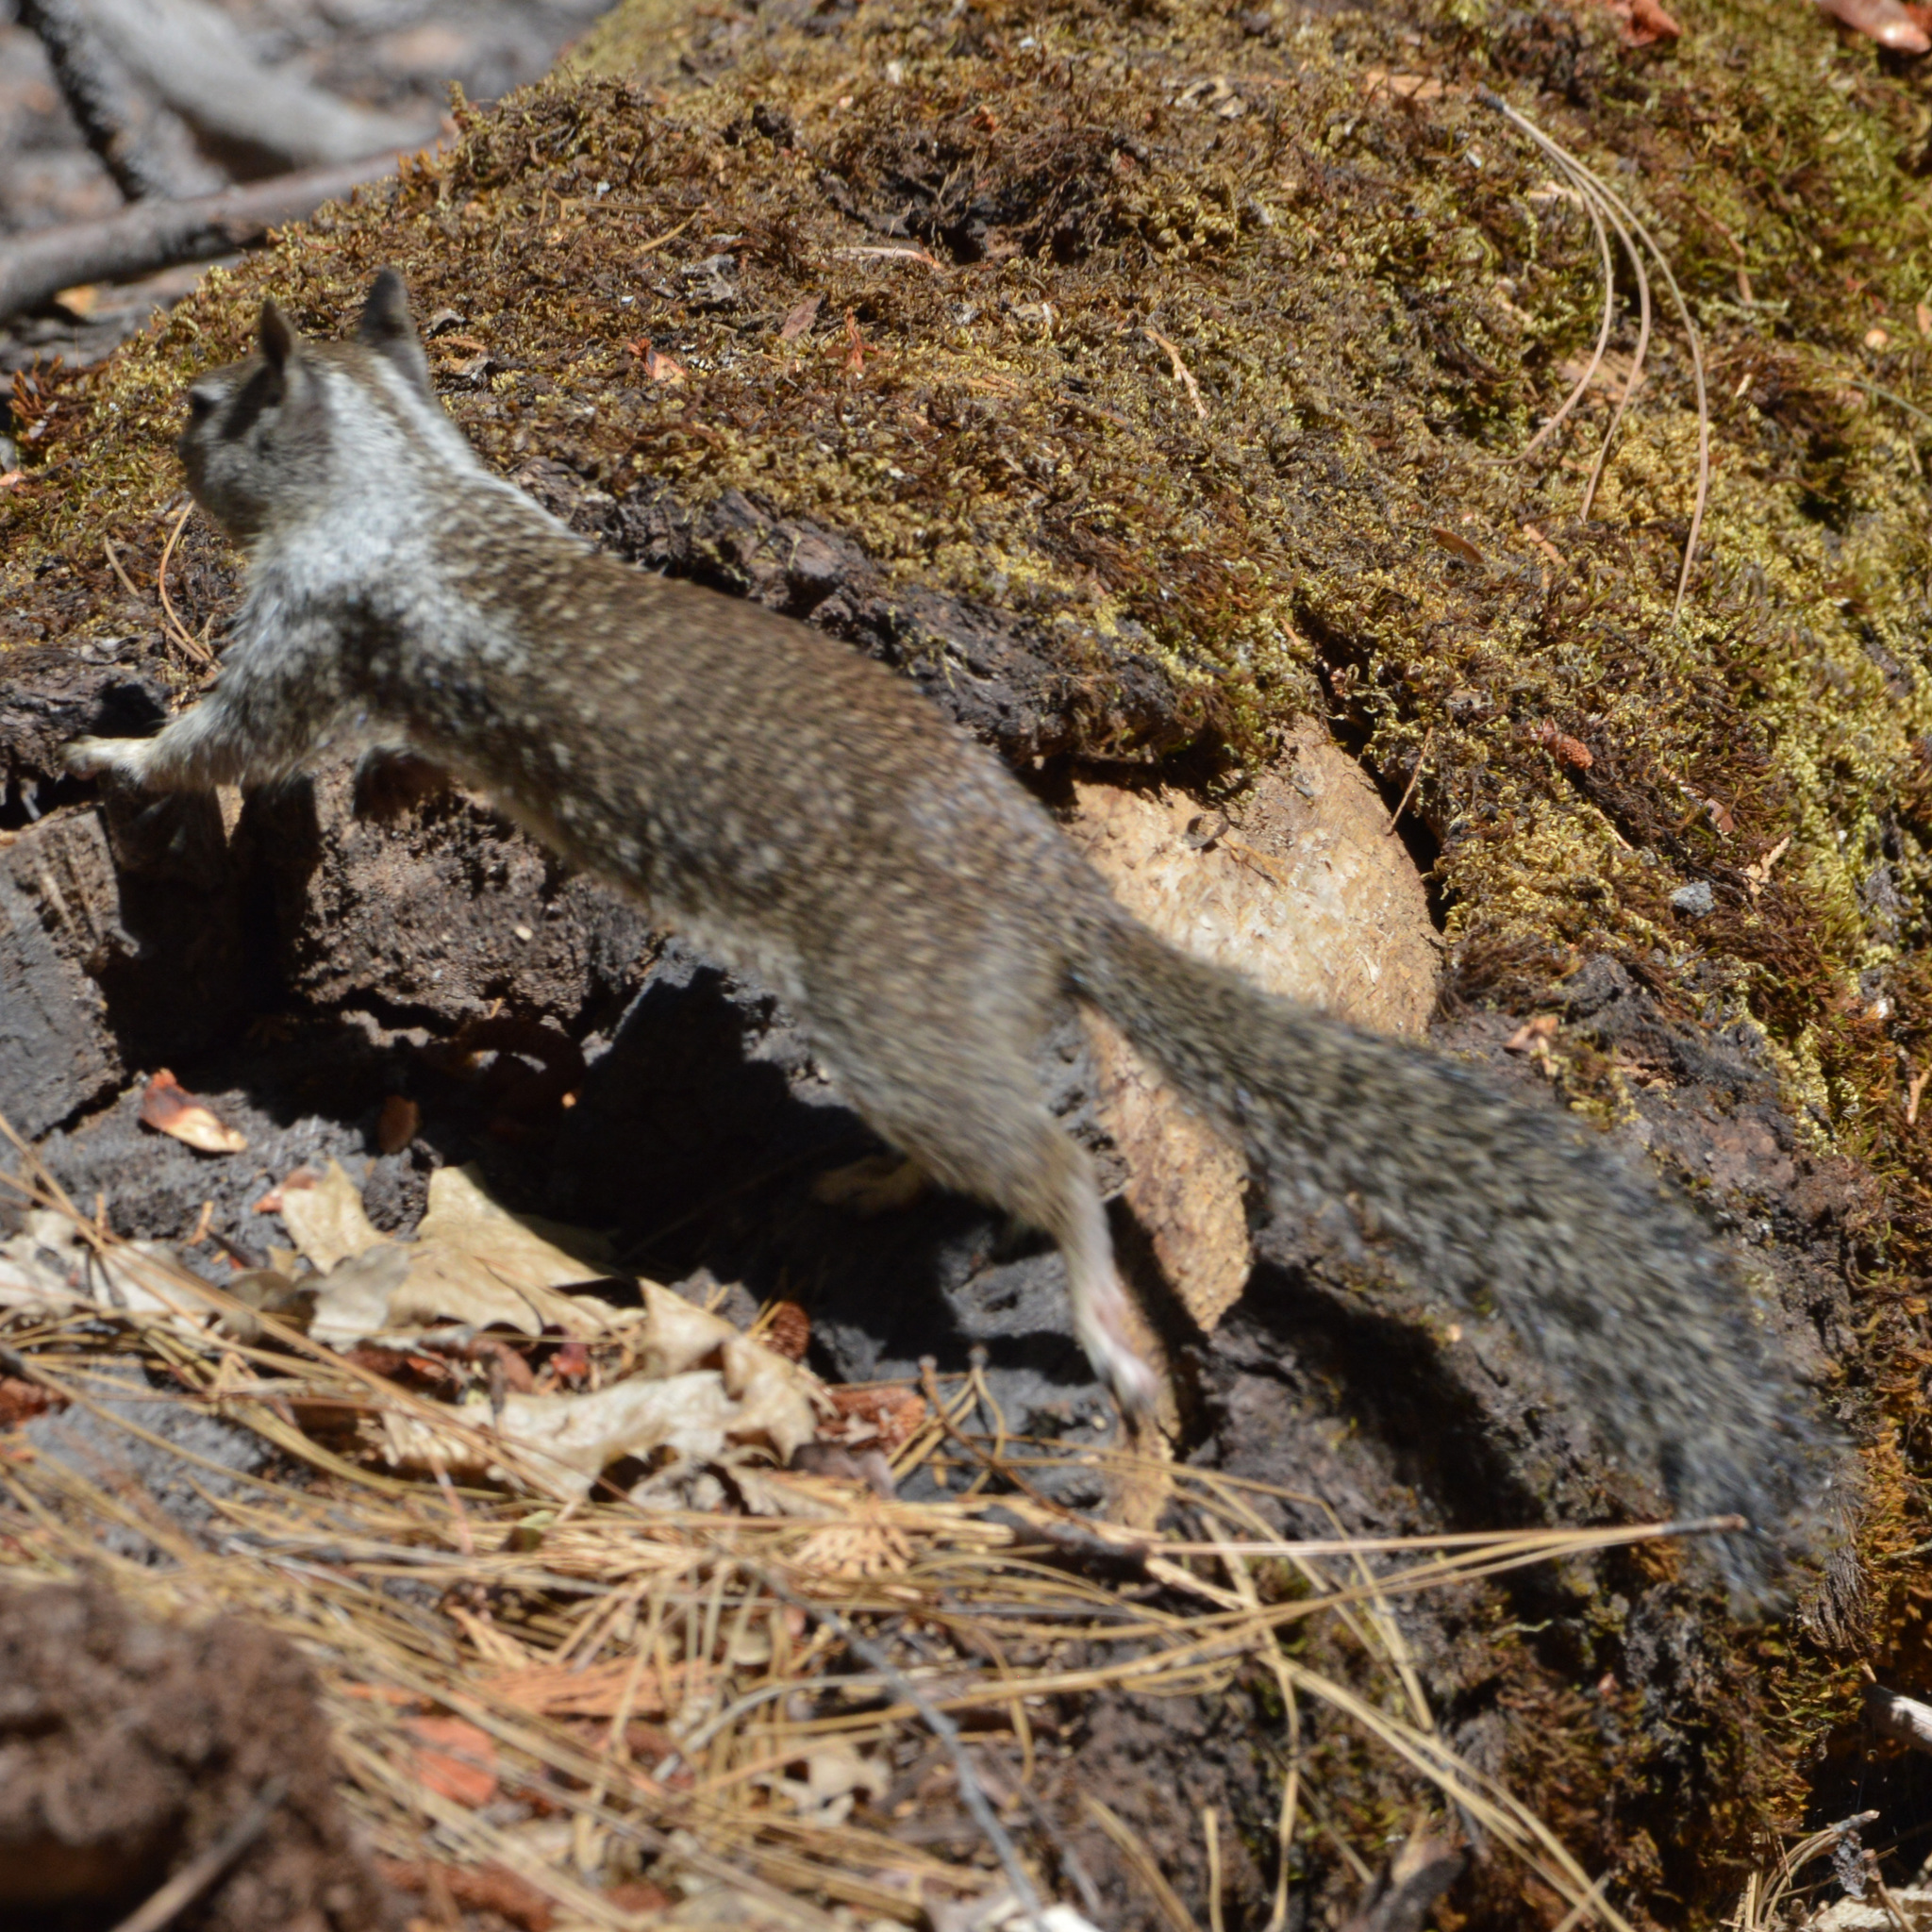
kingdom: Animalia
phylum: Chordata
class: Mammalia
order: Rodentia
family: Sciuridae
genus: Otospermophilus
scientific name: Otospermophilus beecheyi
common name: California ground squirrel
